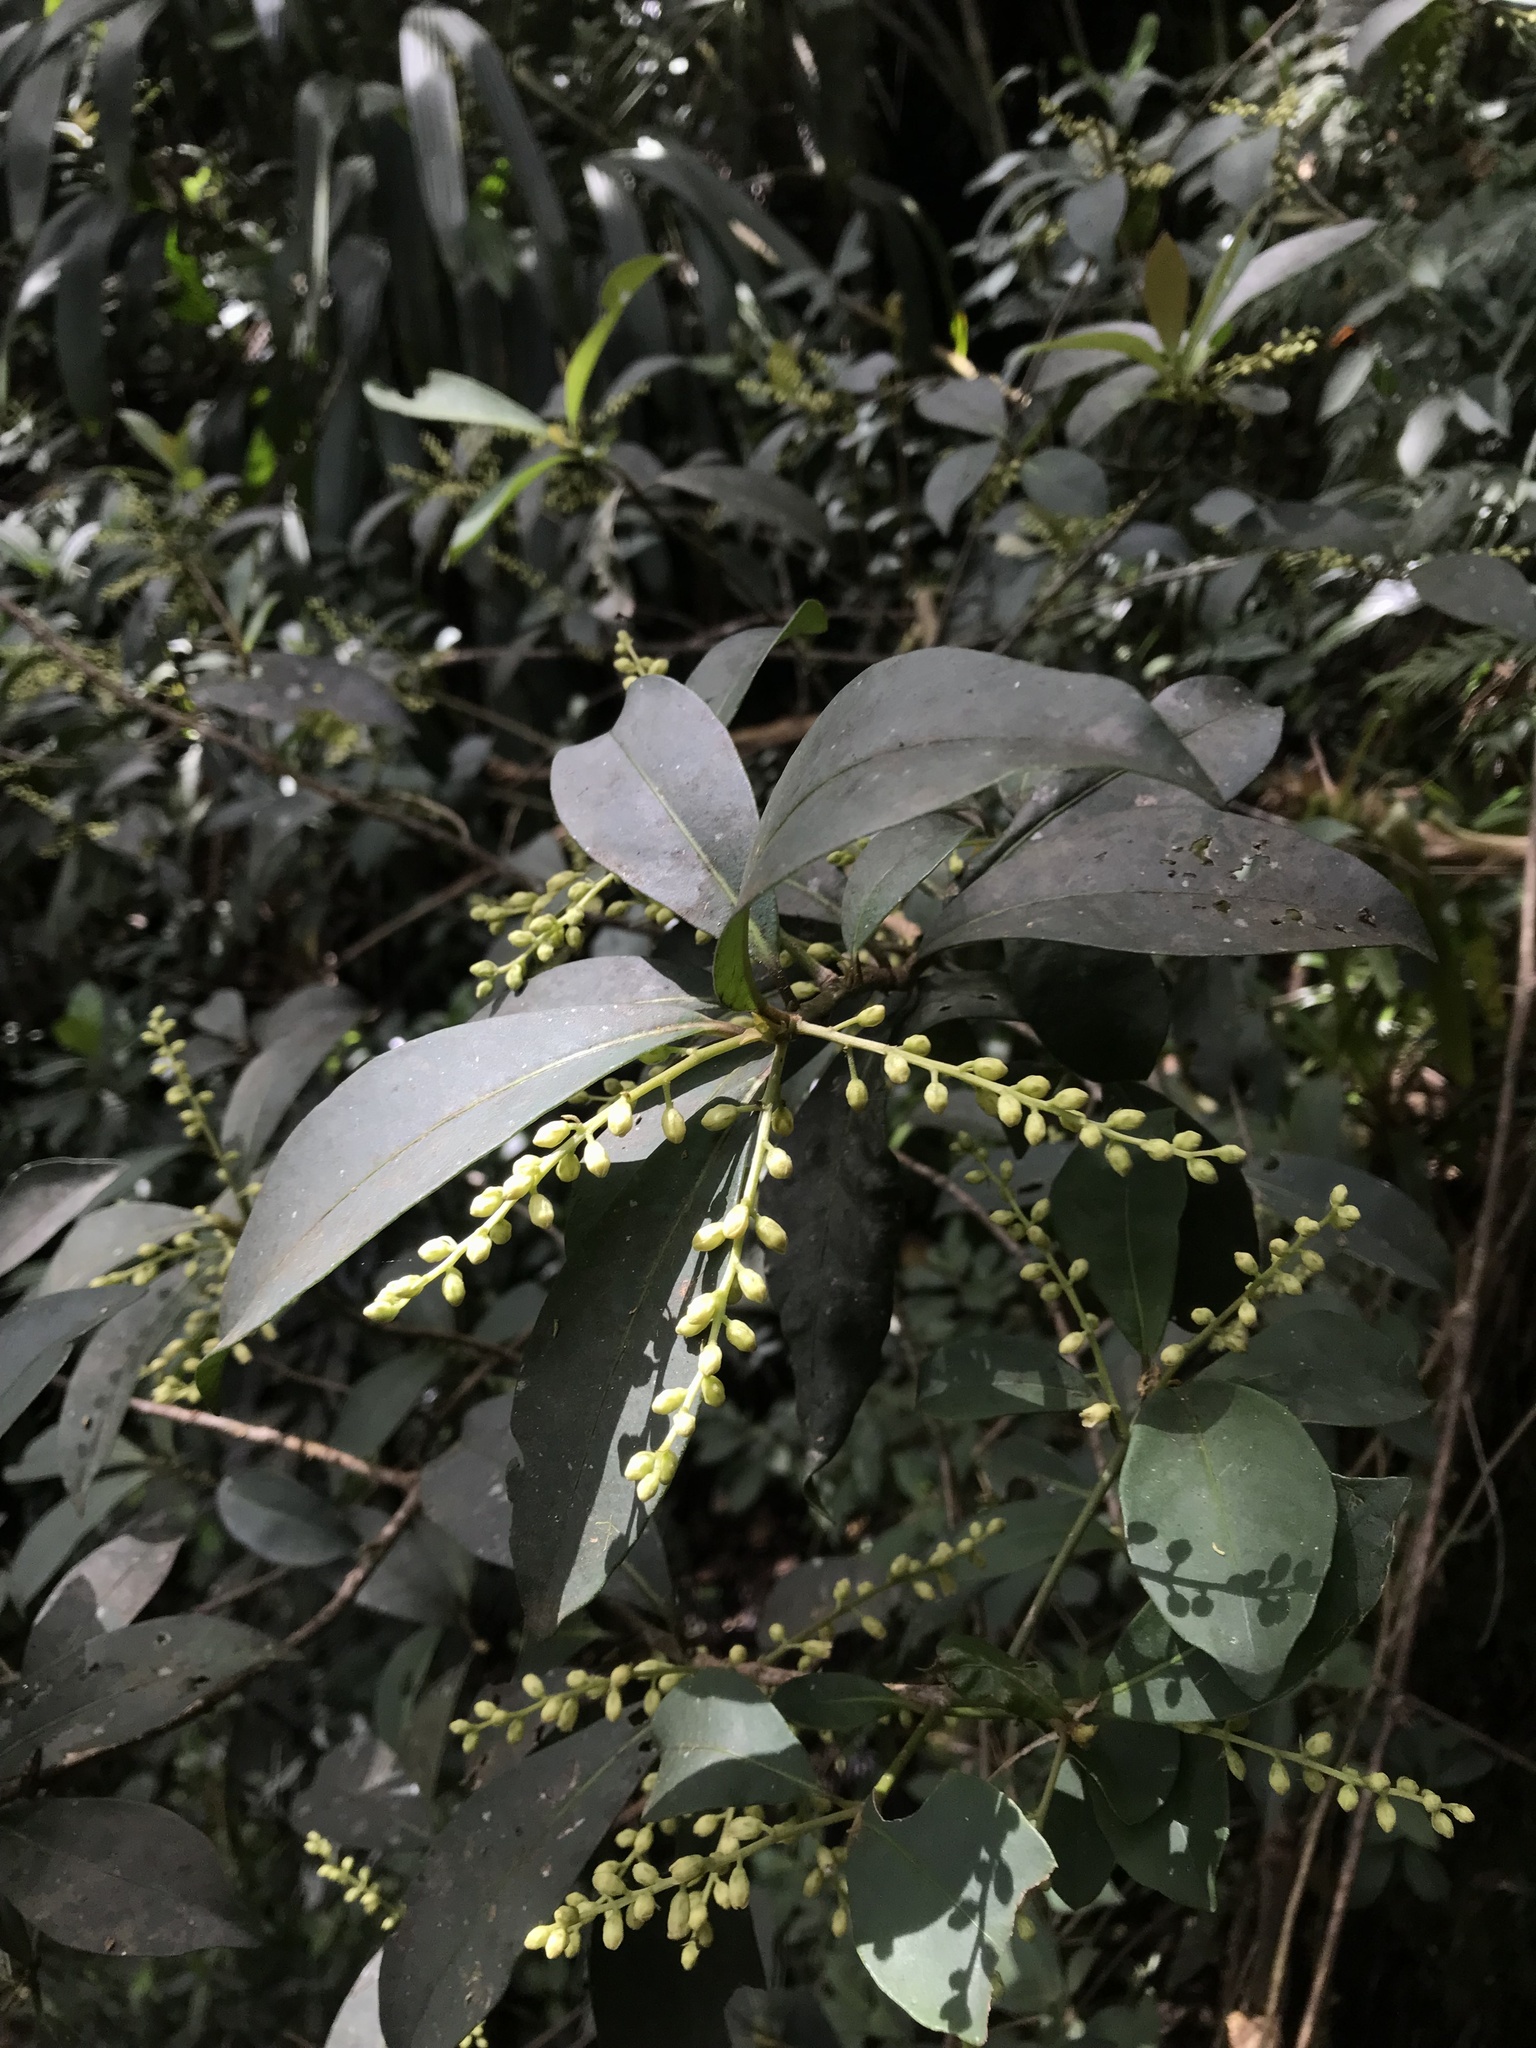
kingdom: Plantae
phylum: Tracheophyta
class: Magnoliopsida
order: Ericales
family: Primulaceae
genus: Cybianthus
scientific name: Cybianthus iteoides
